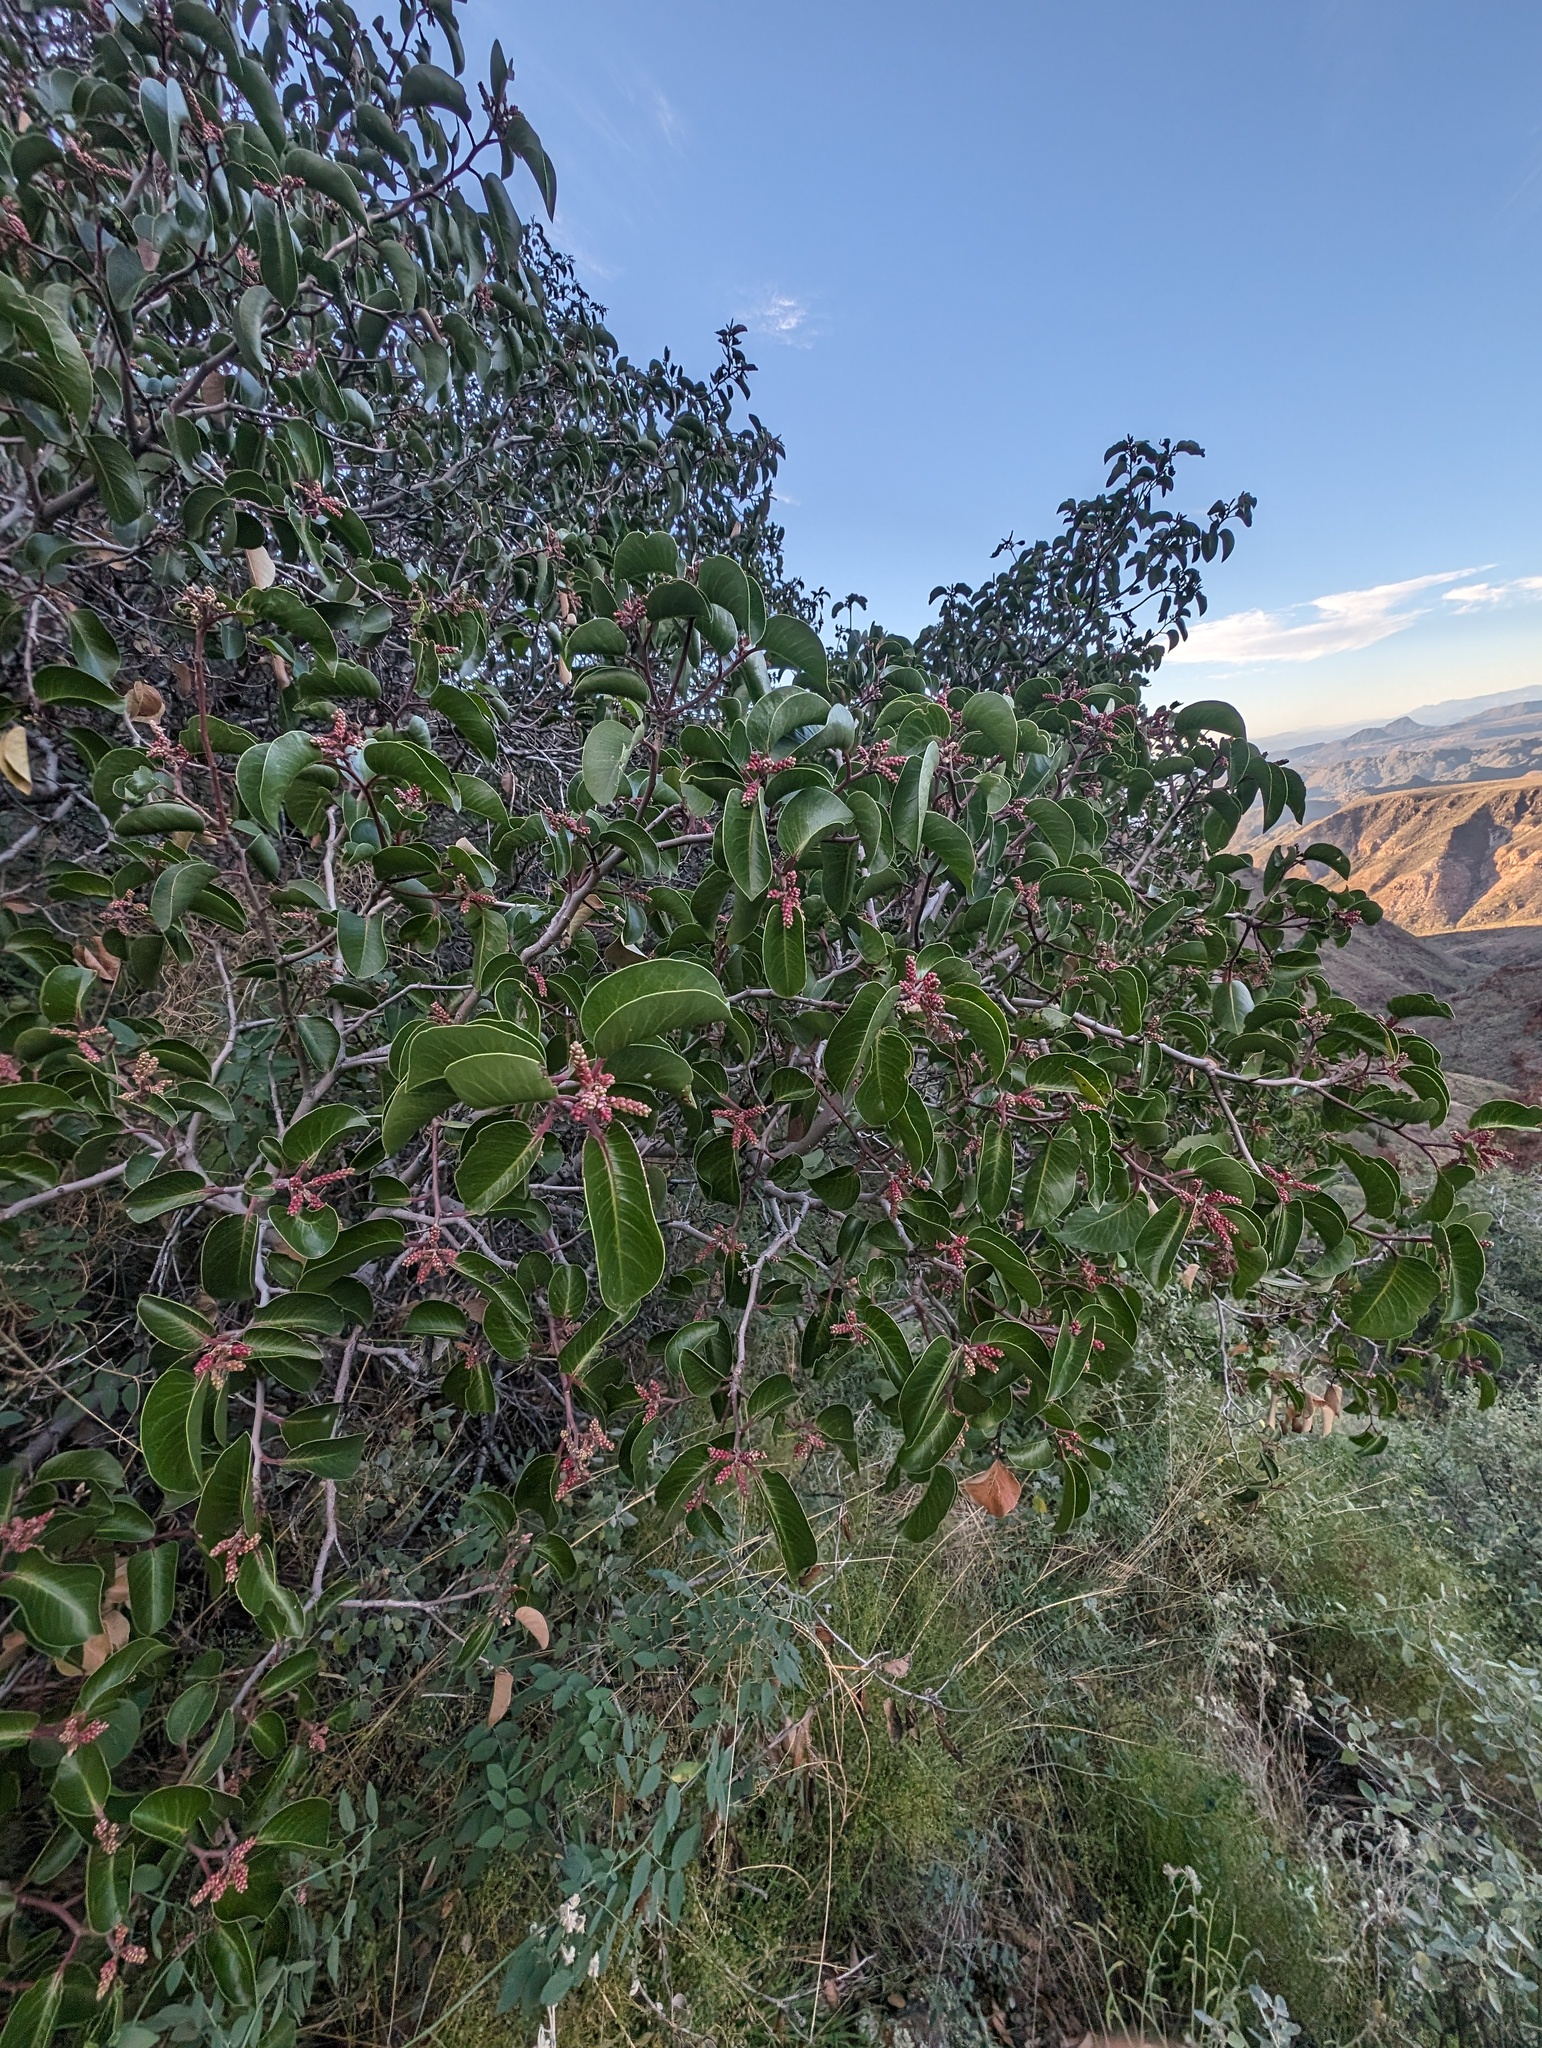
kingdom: Plantae
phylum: Tracheophyta
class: Magnoliopsida
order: Sapindales
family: Anacardiaceae
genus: Rhus
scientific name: Rhus ovata
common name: Sugar sumac
